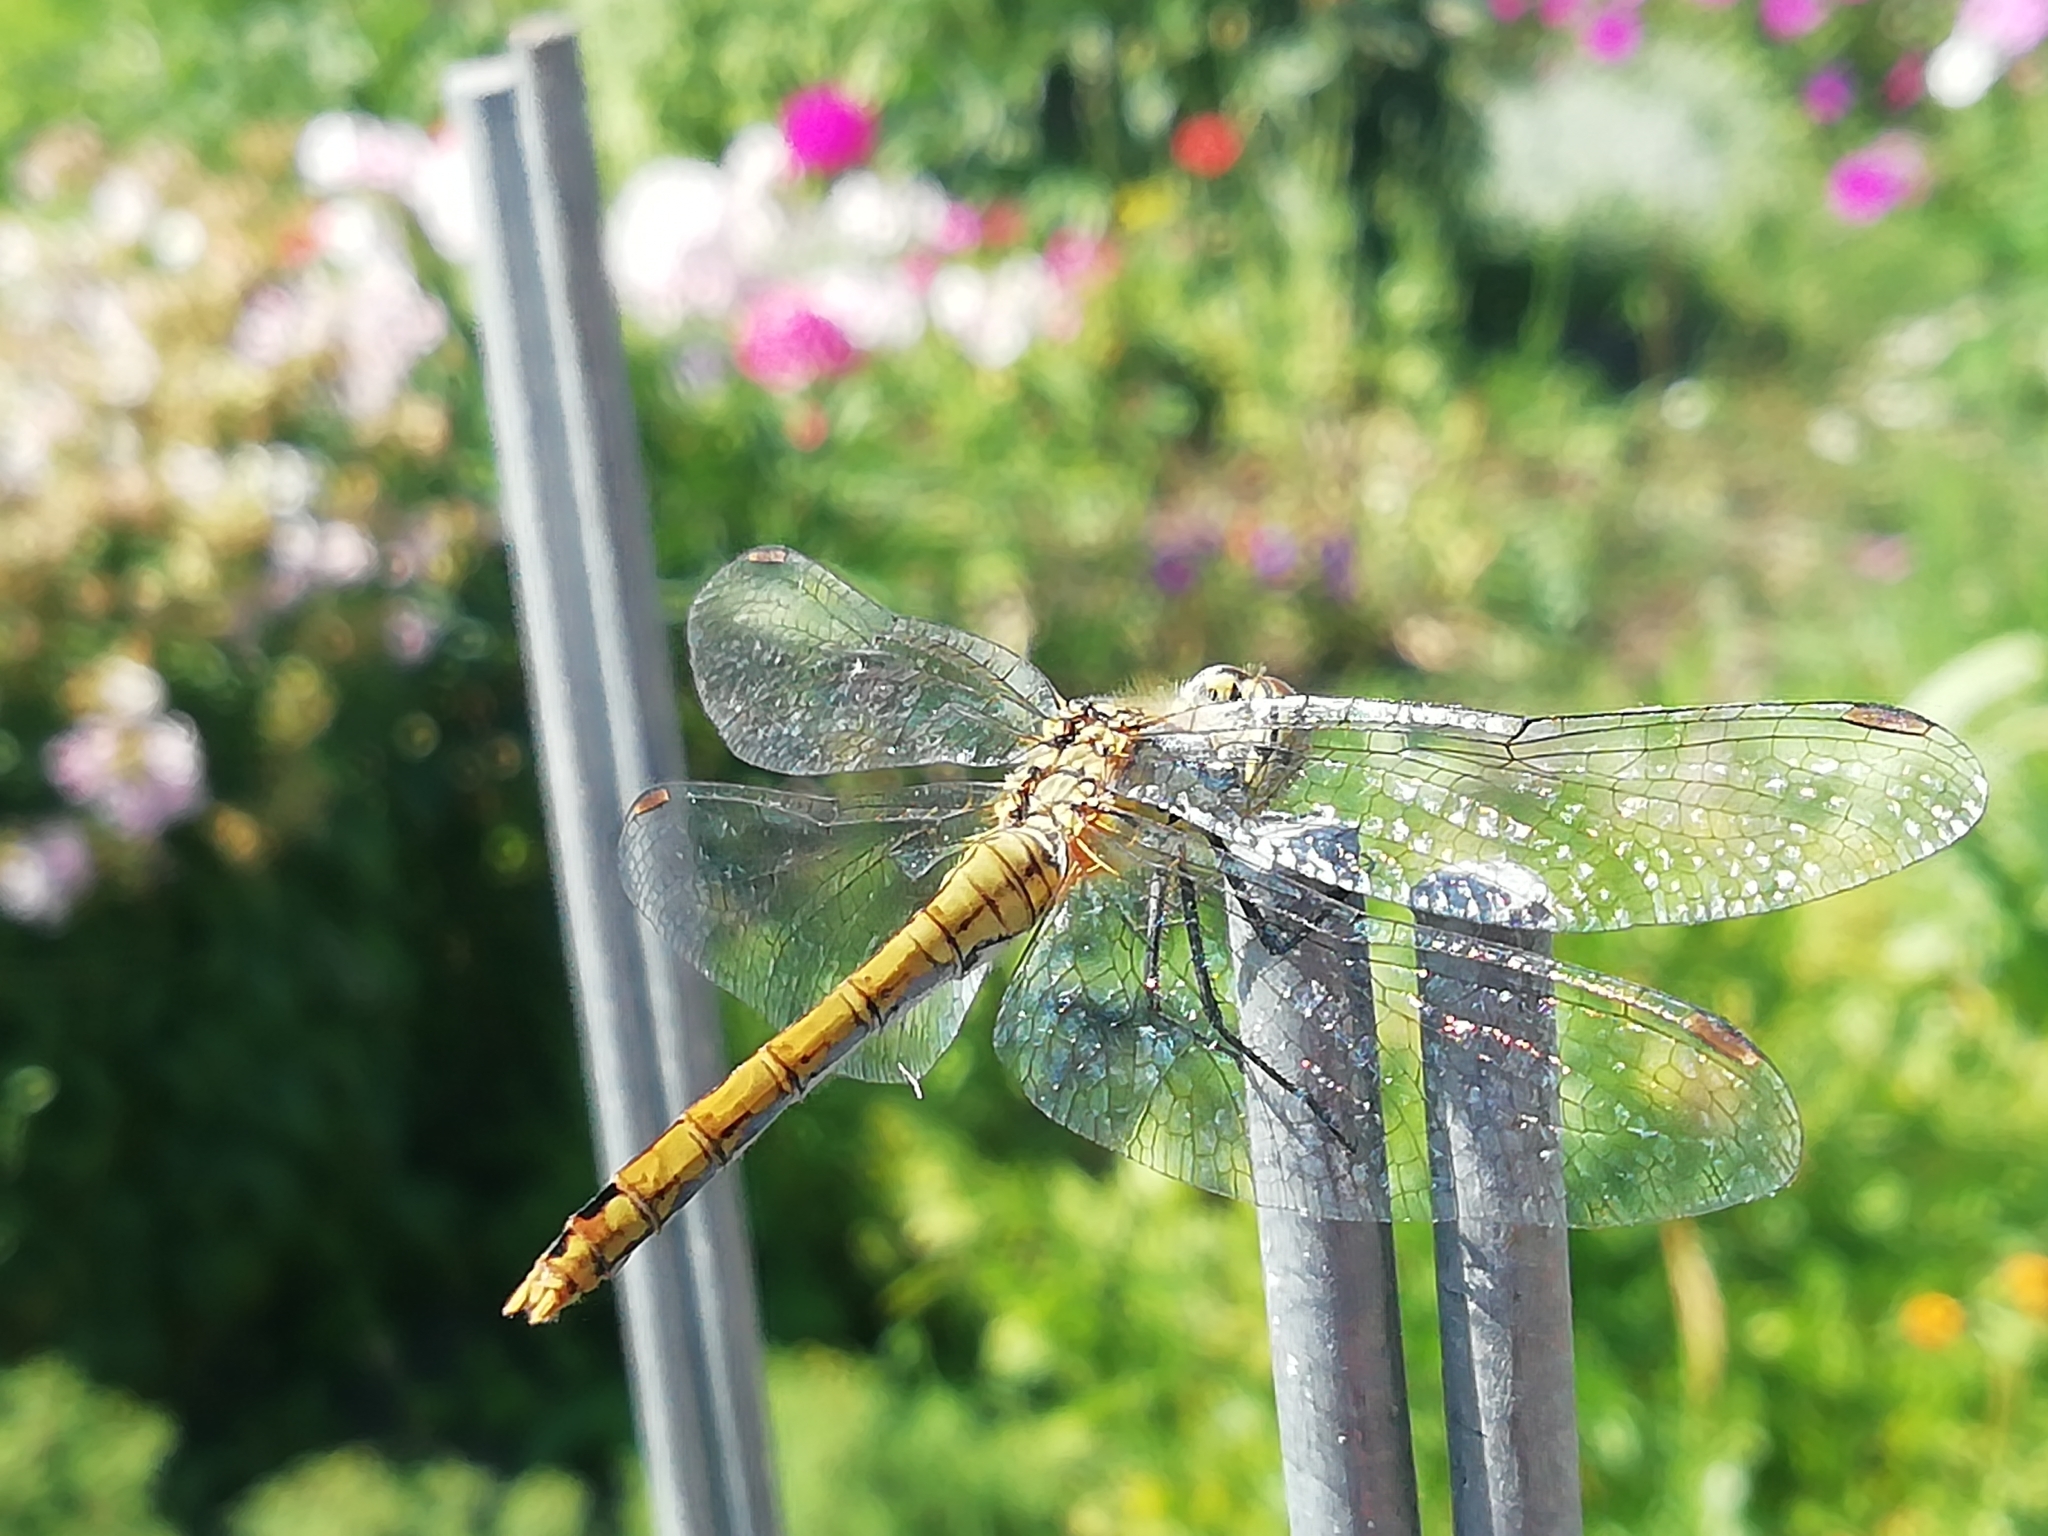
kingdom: Animalia
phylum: Arthropoda
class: Insecta
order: Odonata
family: Libellulidae
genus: Sympetrum
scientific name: Sympetrum sanguineum
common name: Ruddy darter
